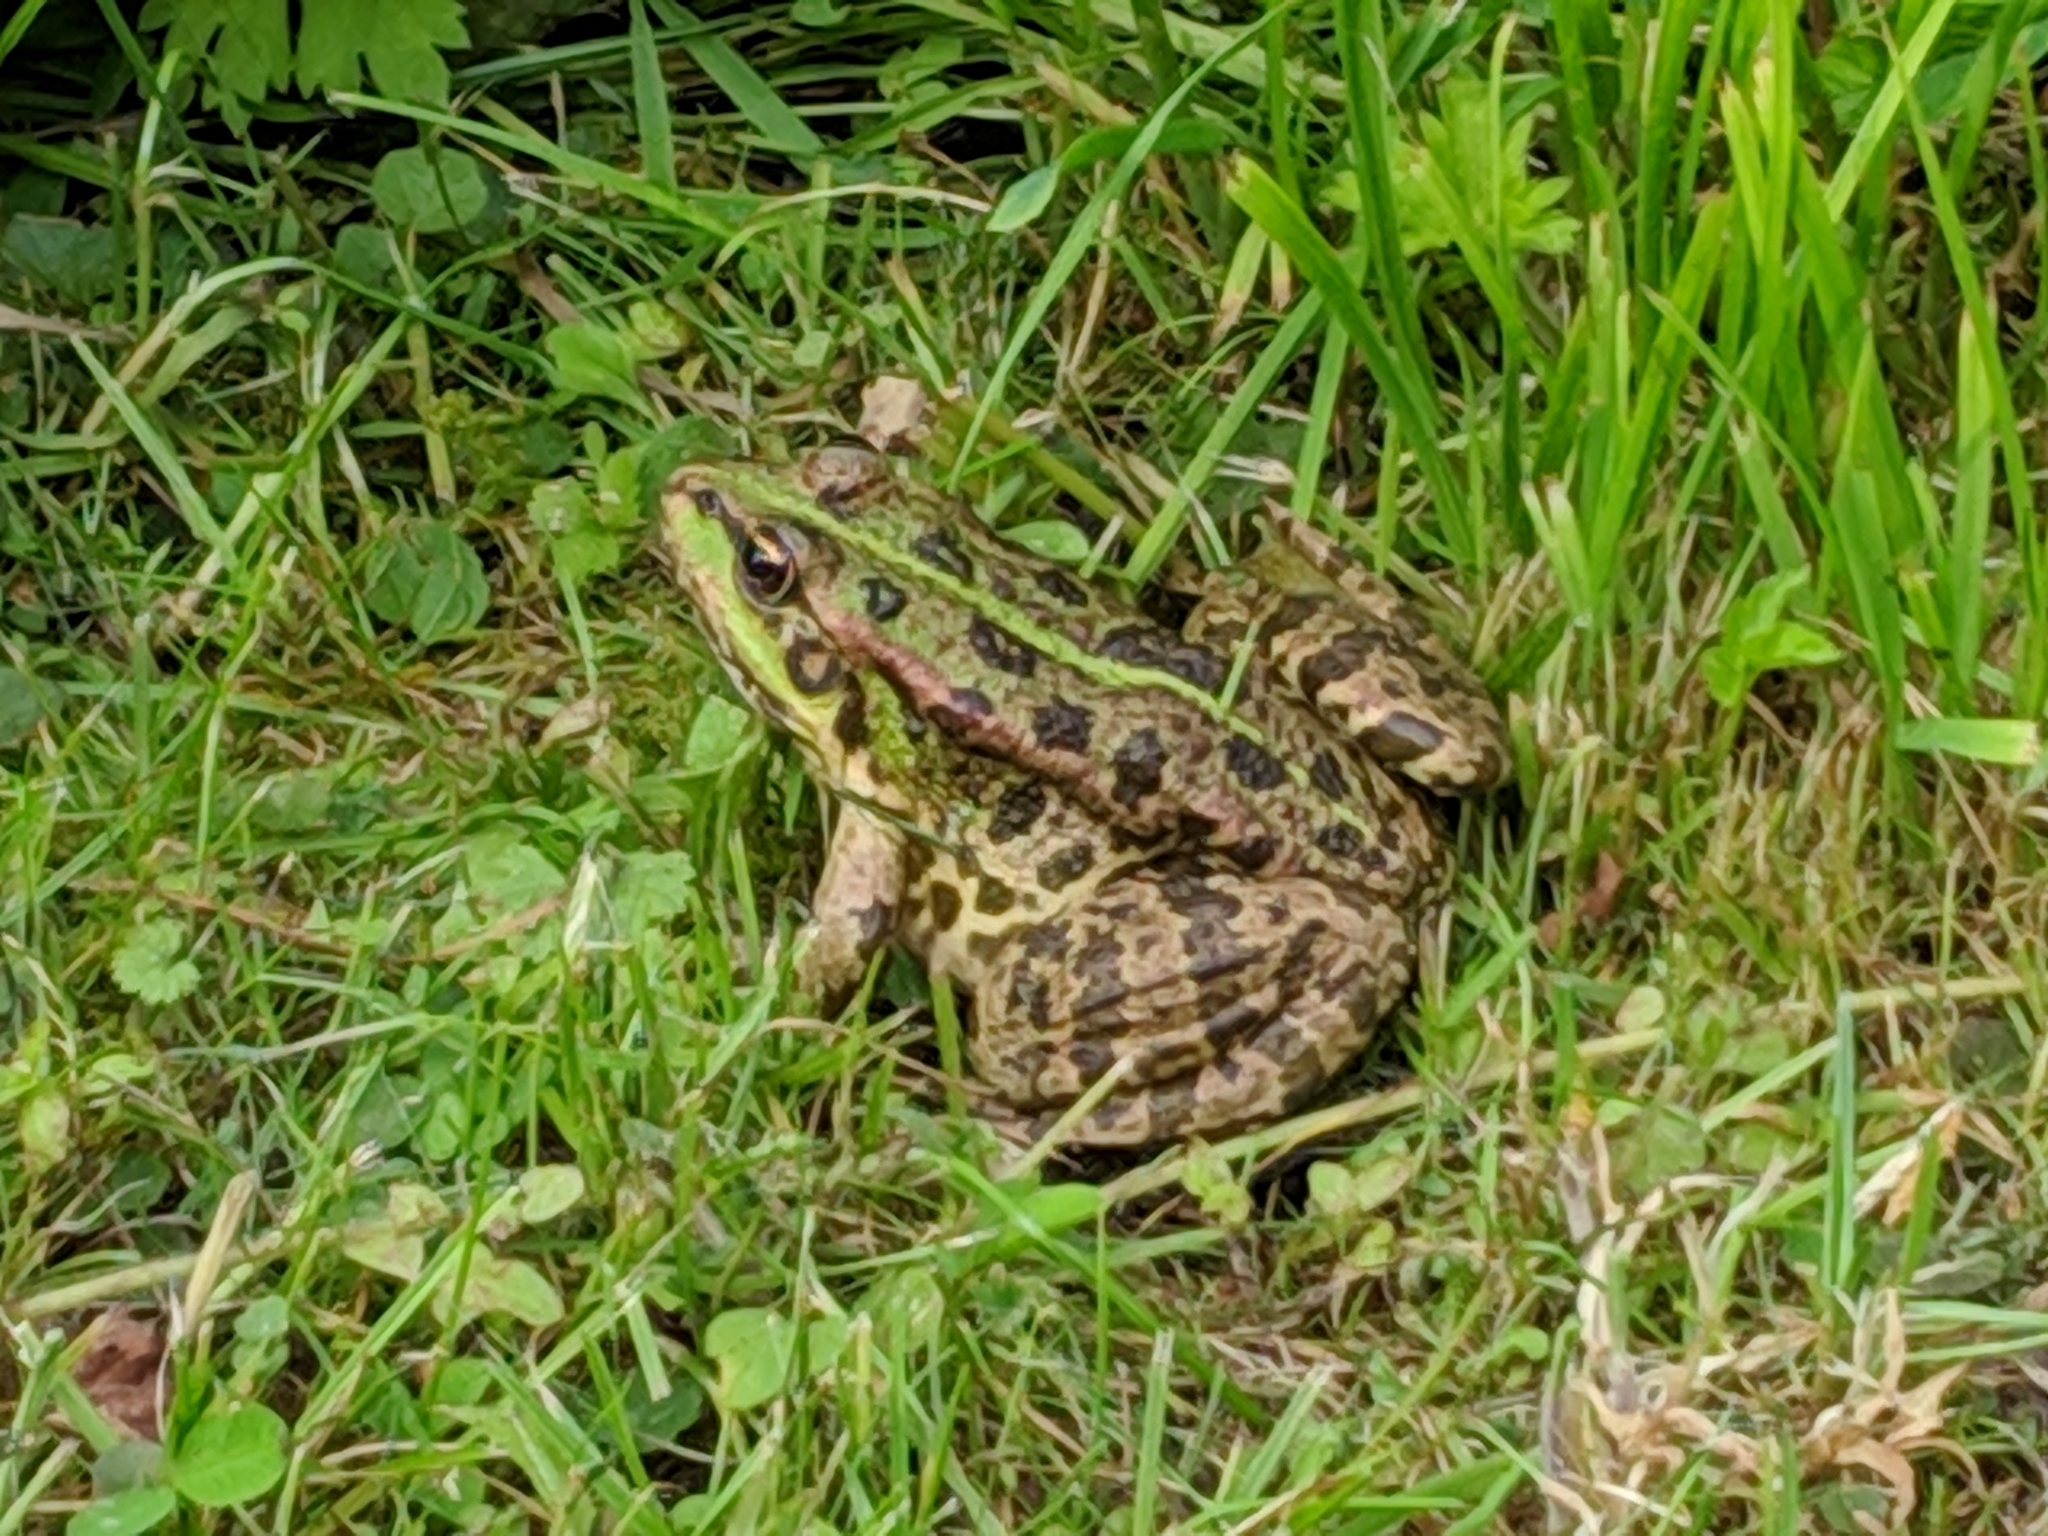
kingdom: Animalia
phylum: Chordata
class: Amphibia
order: Anura
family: Ranidae
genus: Pelophylax
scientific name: Pelophylax ridibundus
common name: Marsh frog
